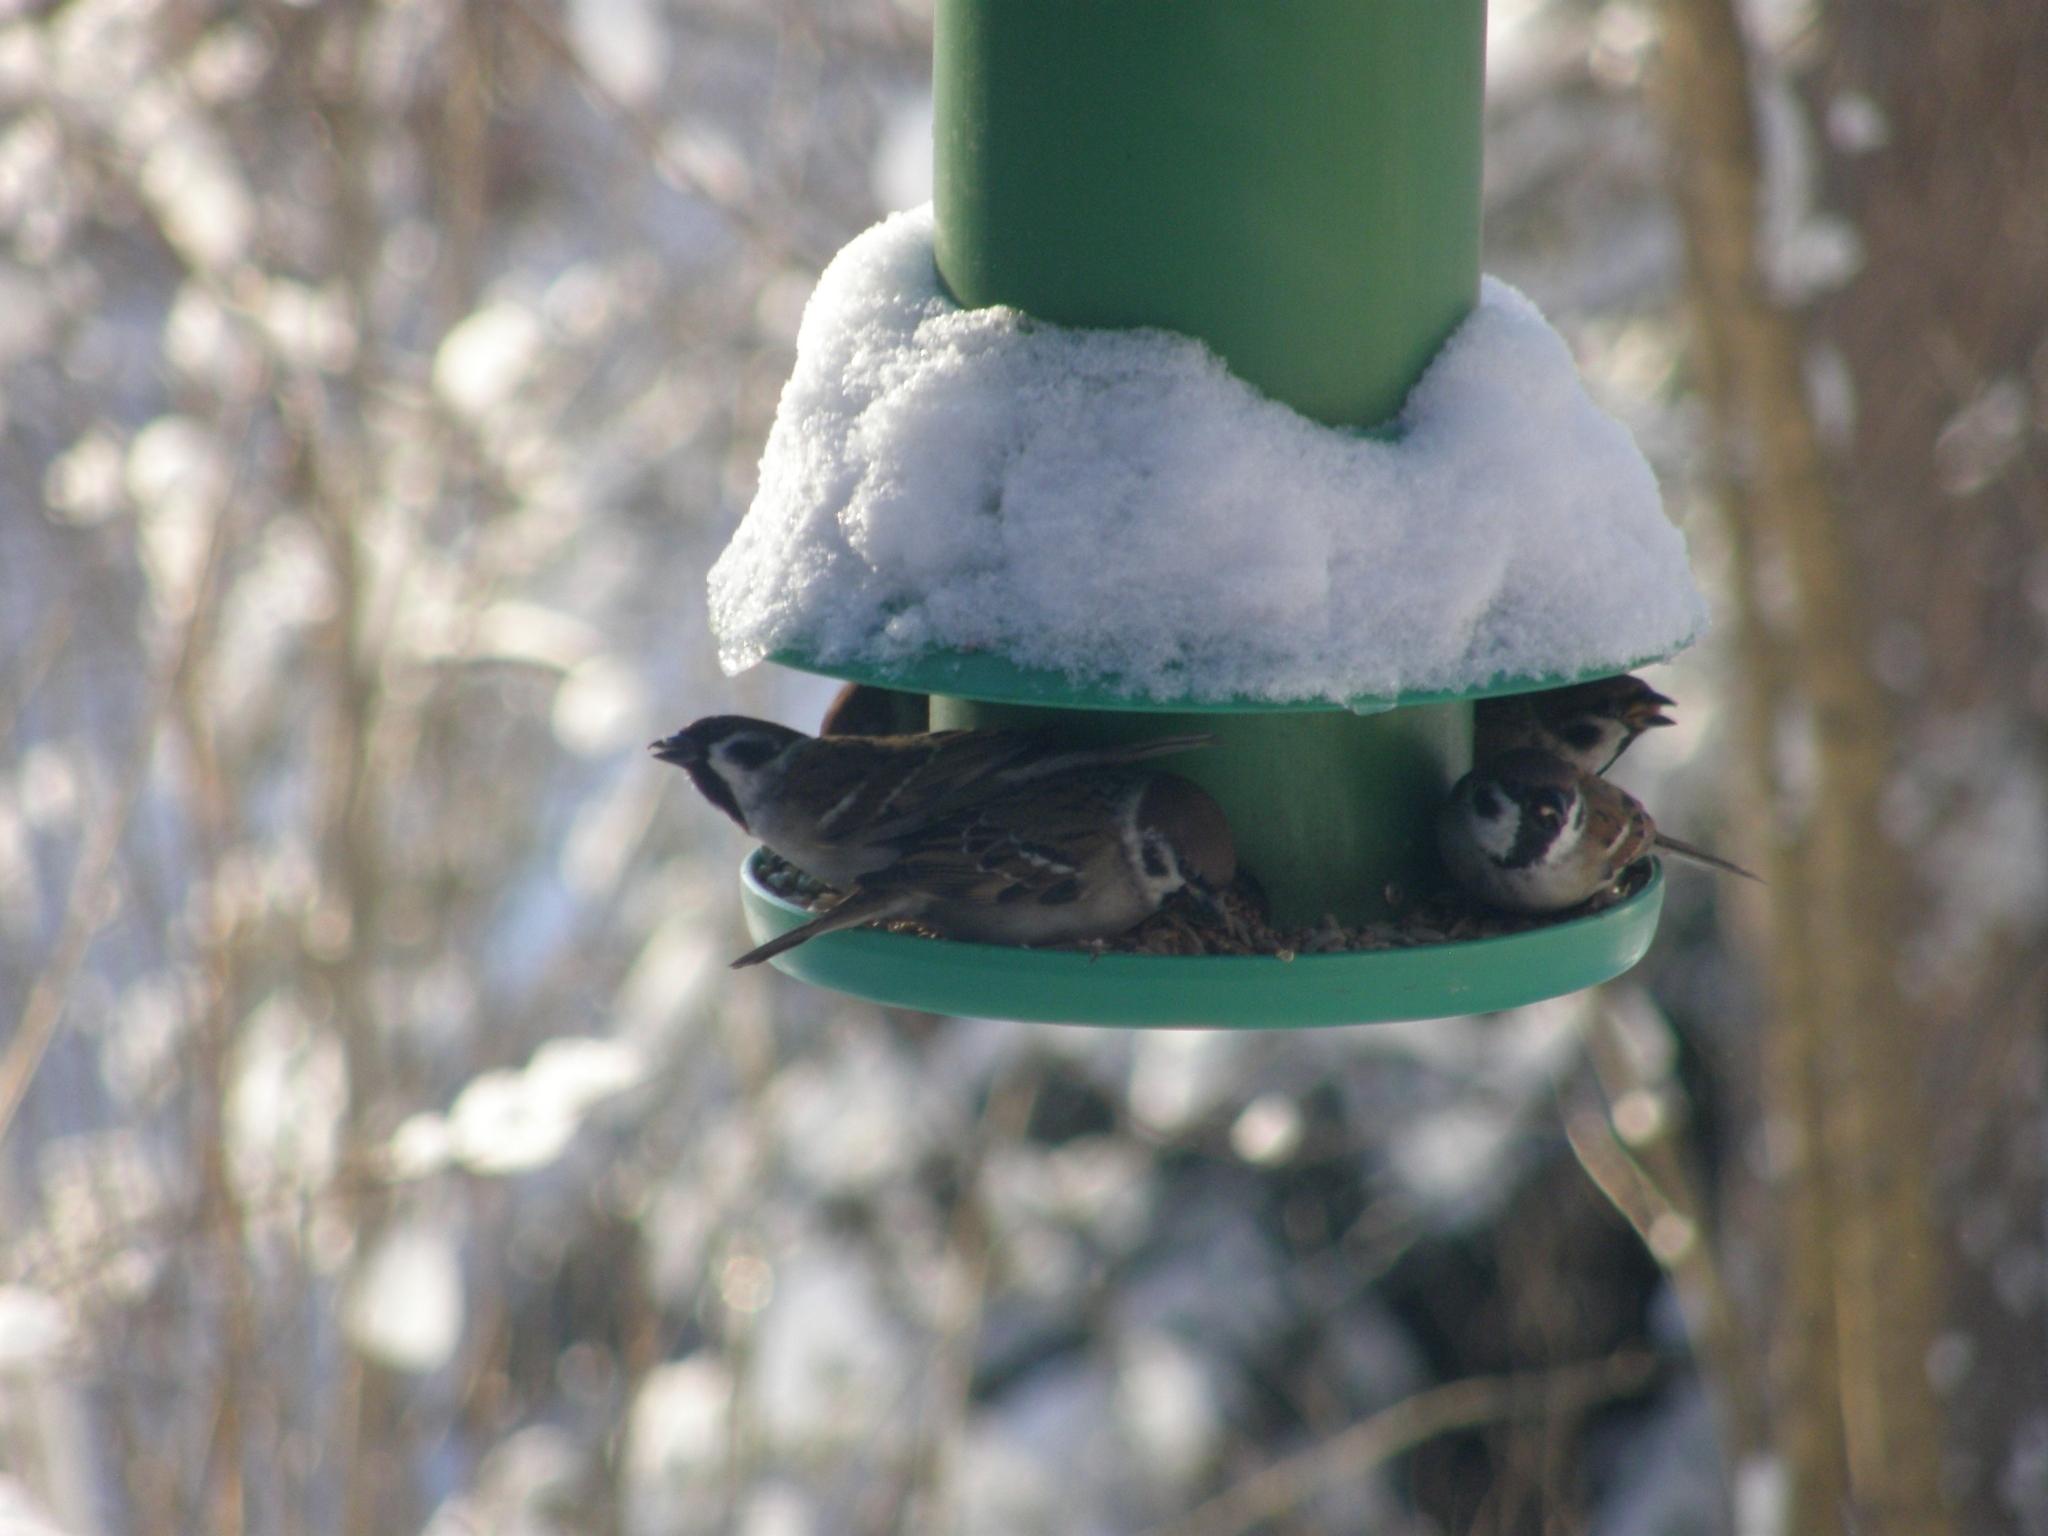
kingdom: Animalia
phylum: Chordata
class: Aves
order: Passeriformes
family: Passeridae
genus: Passer
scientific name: Passer montanus
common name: Eurasian tree sparrow
